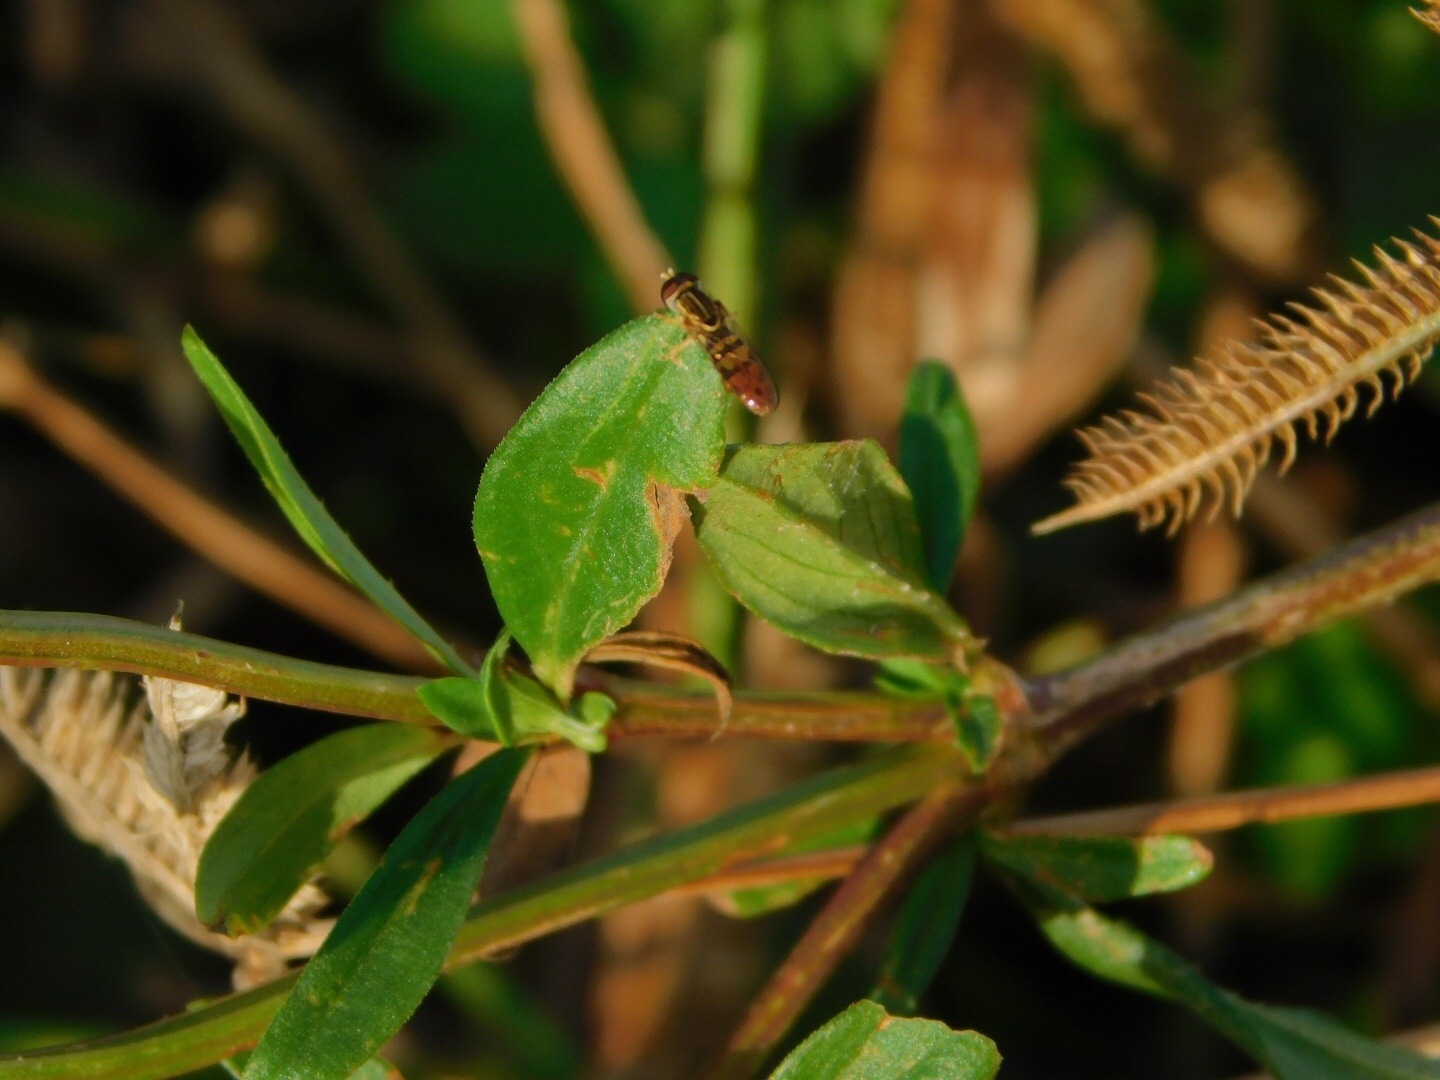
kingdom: Animalia
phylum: Arthropoda
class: Insecta
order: Diptera
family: Syrphidae
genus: Toxomerus
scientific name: Toxomerus floralis
